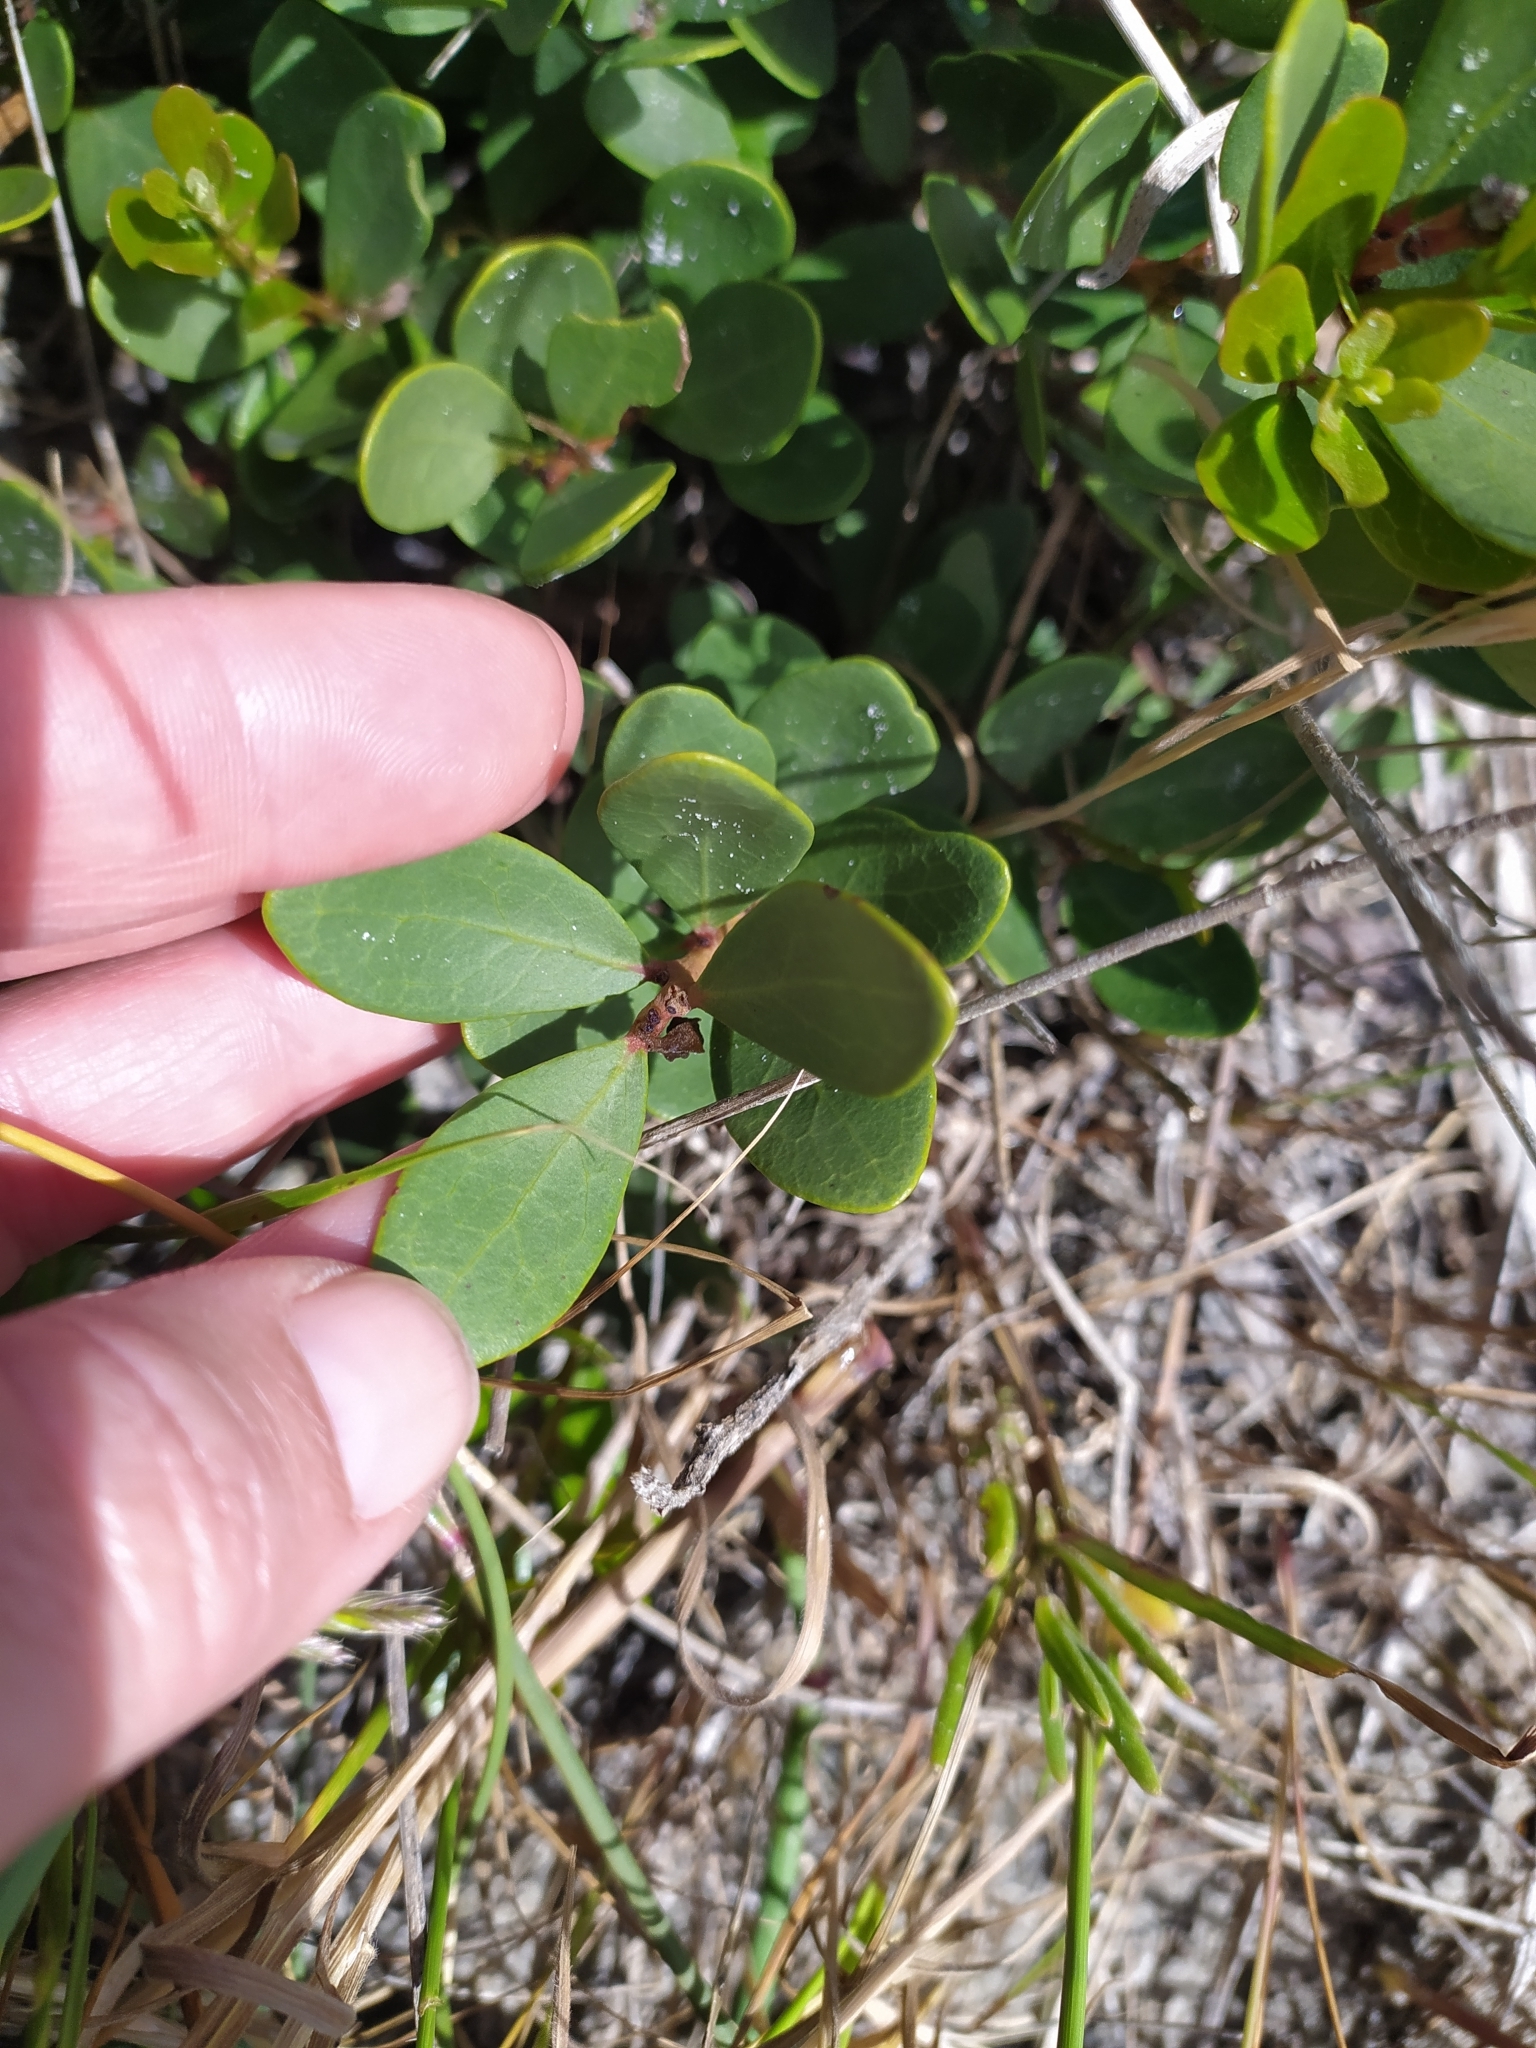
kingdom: Plantae
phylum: Tracheophyta
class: Magnoliopsida
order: Ericales
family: Ebenaceae
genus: Euclea
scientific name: Euclea racemosa
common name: Dune guarri
